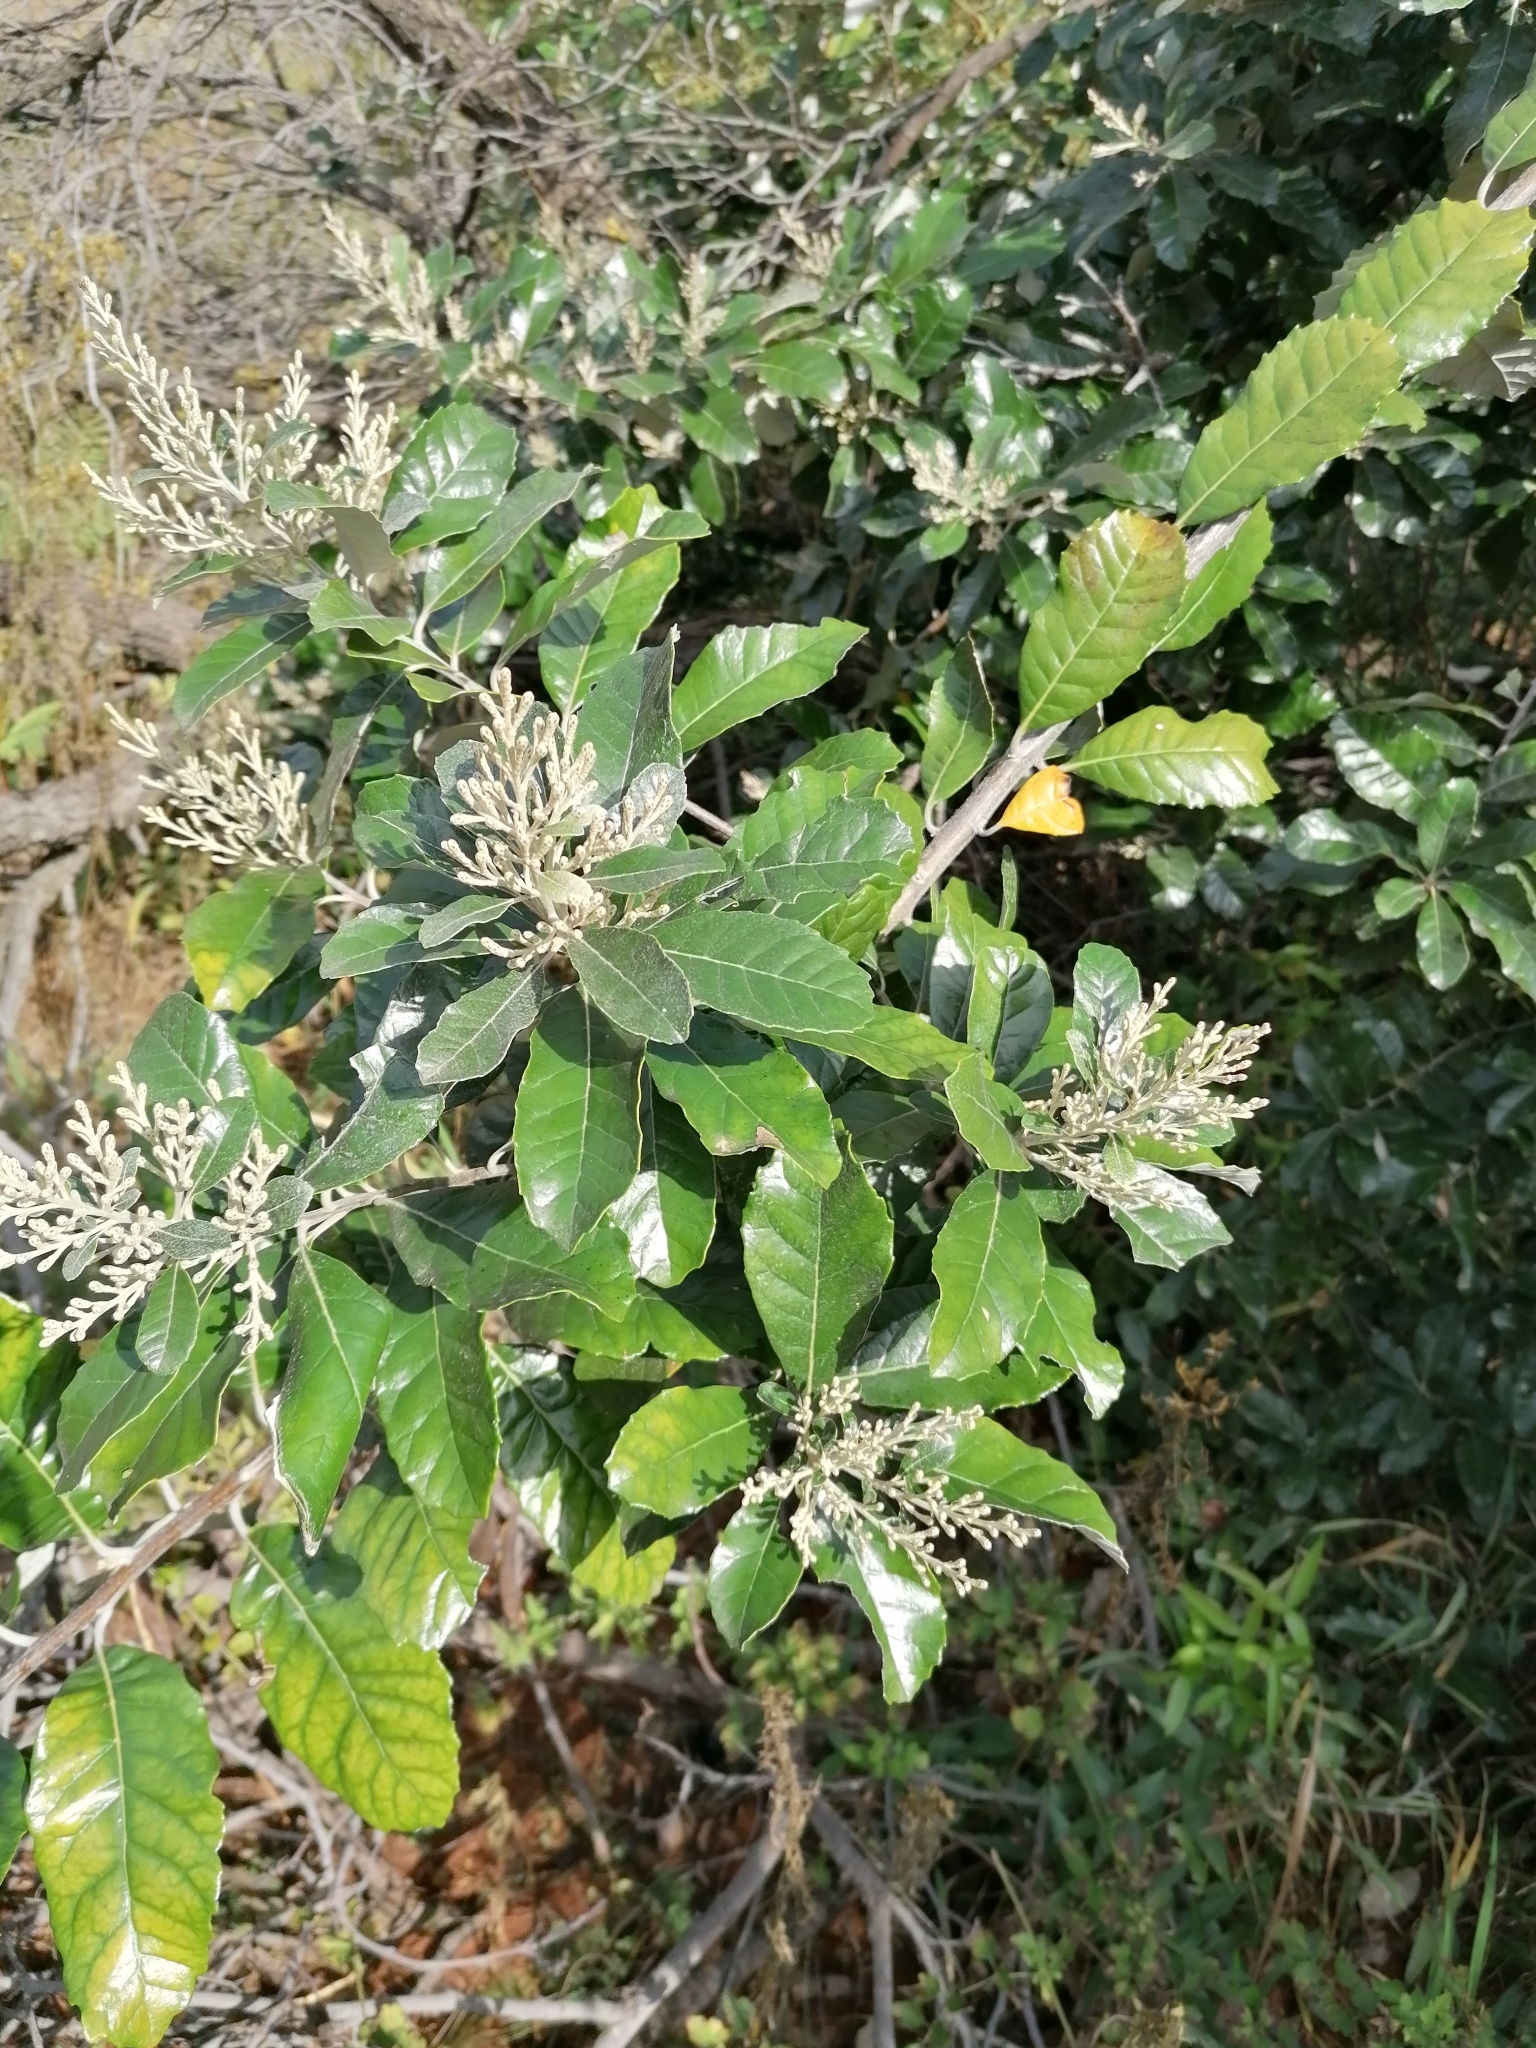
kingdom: Plantae
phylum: Tracheophyta
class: Magnoliopsida
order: Asterales
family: Asteraceae
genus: Brachylaena
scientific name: Brachylaena discolor
